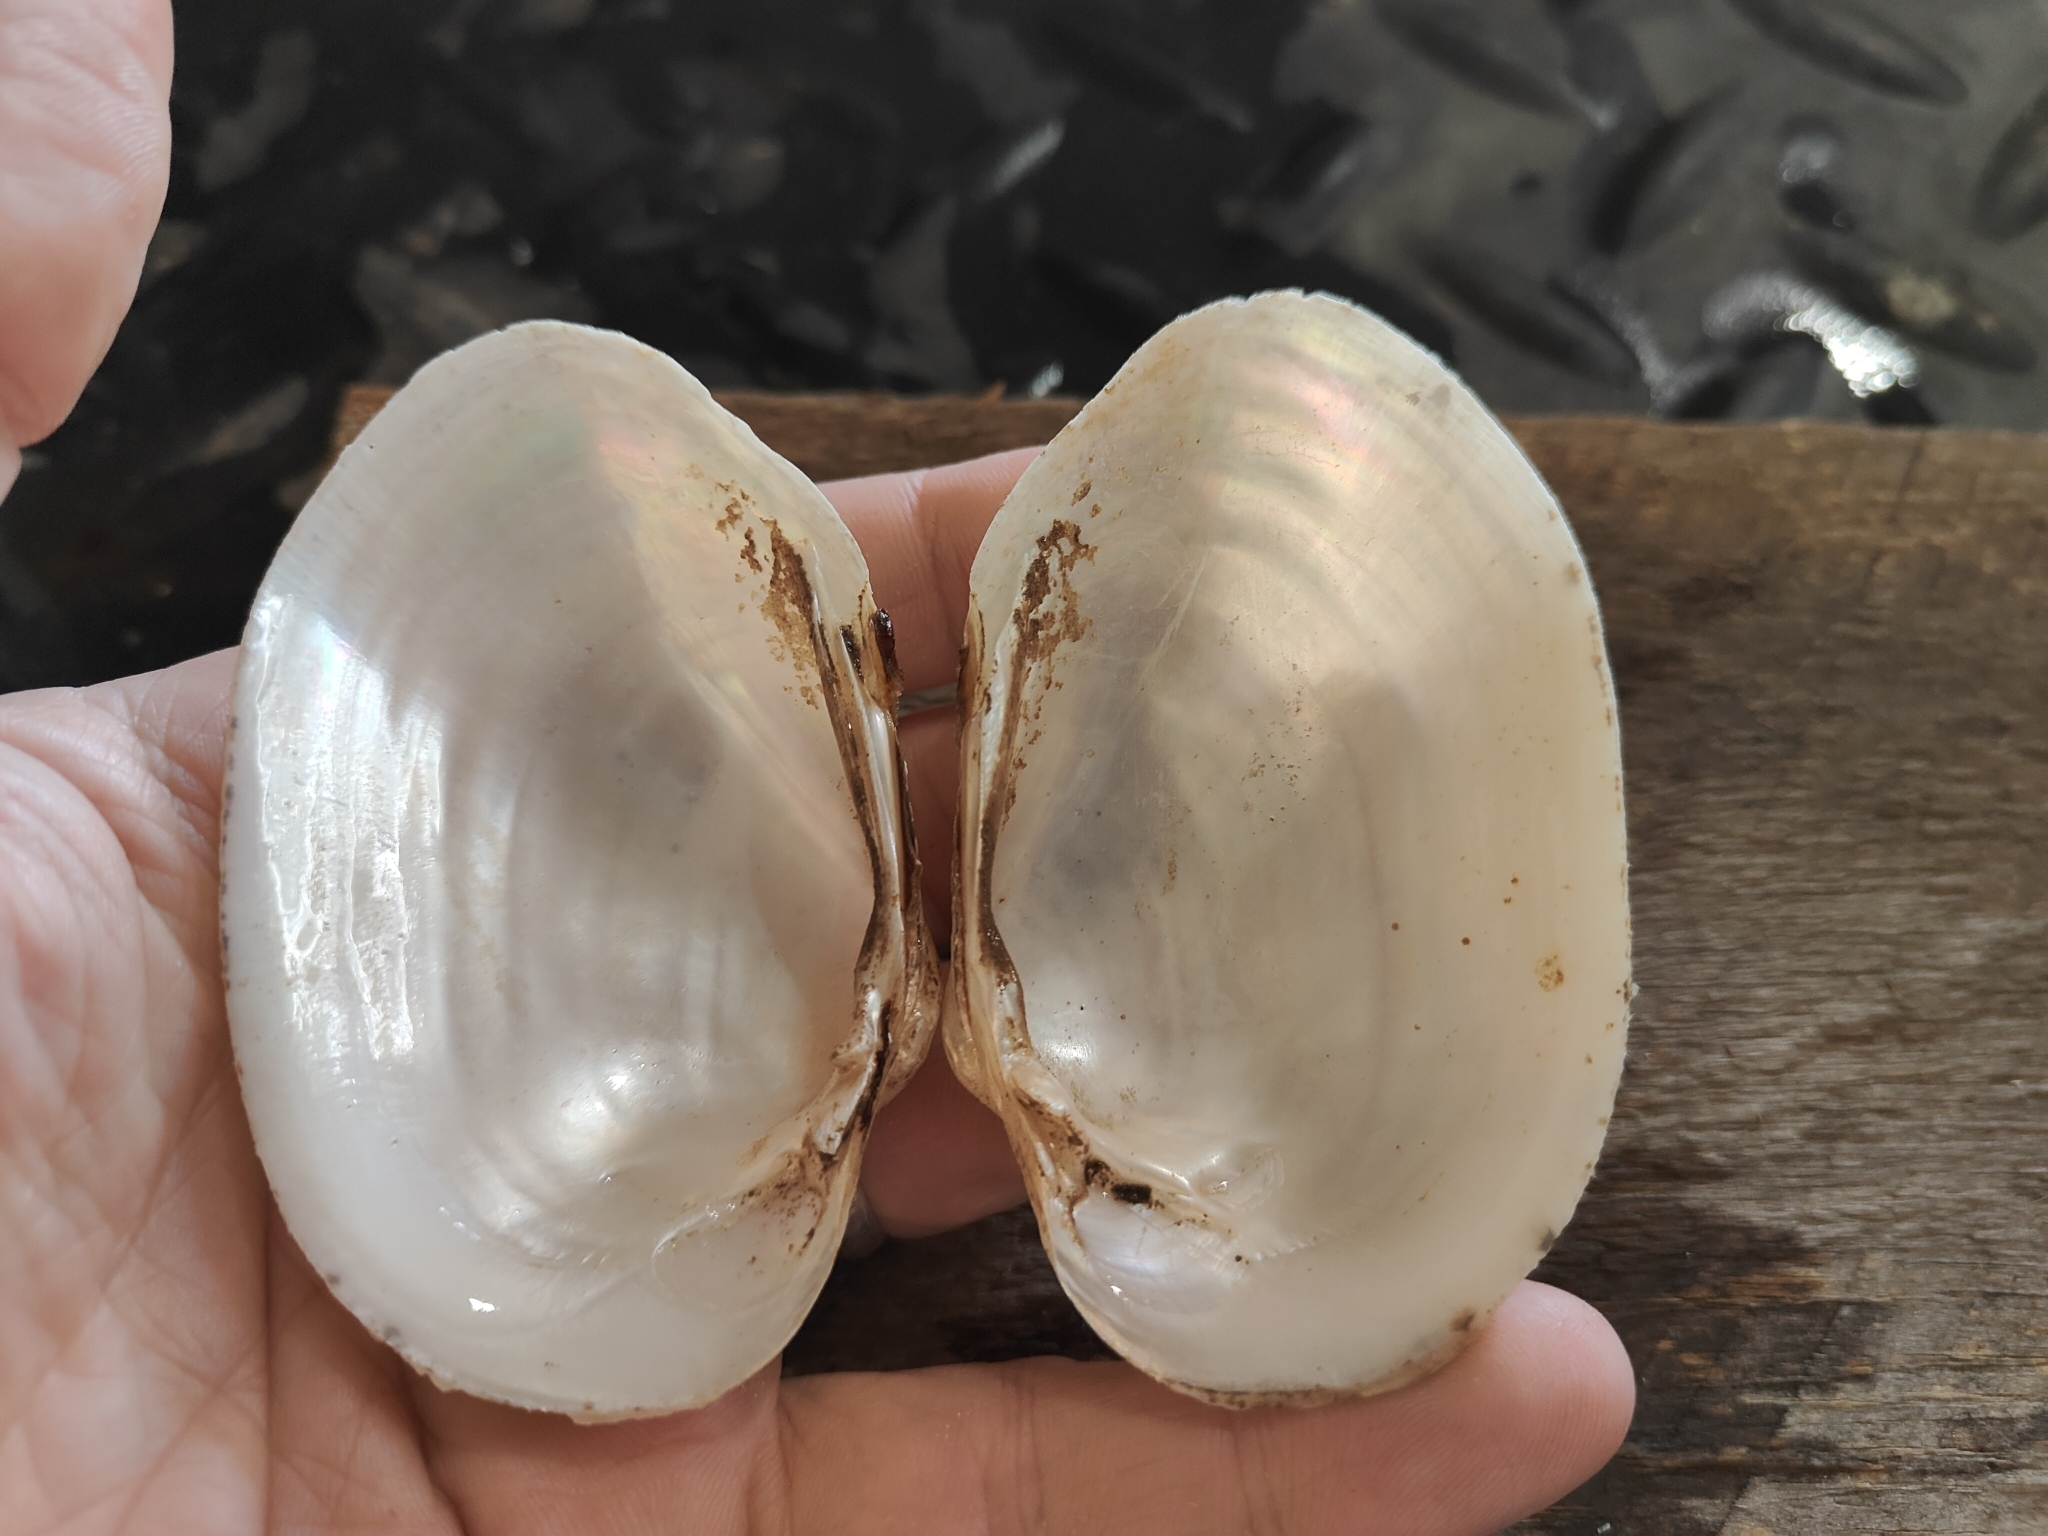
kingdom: Animalia
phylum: Mollusca
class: Bivalvia
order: Unionida
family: Unionidae
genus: Lampsilis
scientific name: Lampsilis cardium
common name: Plain pocketbook
